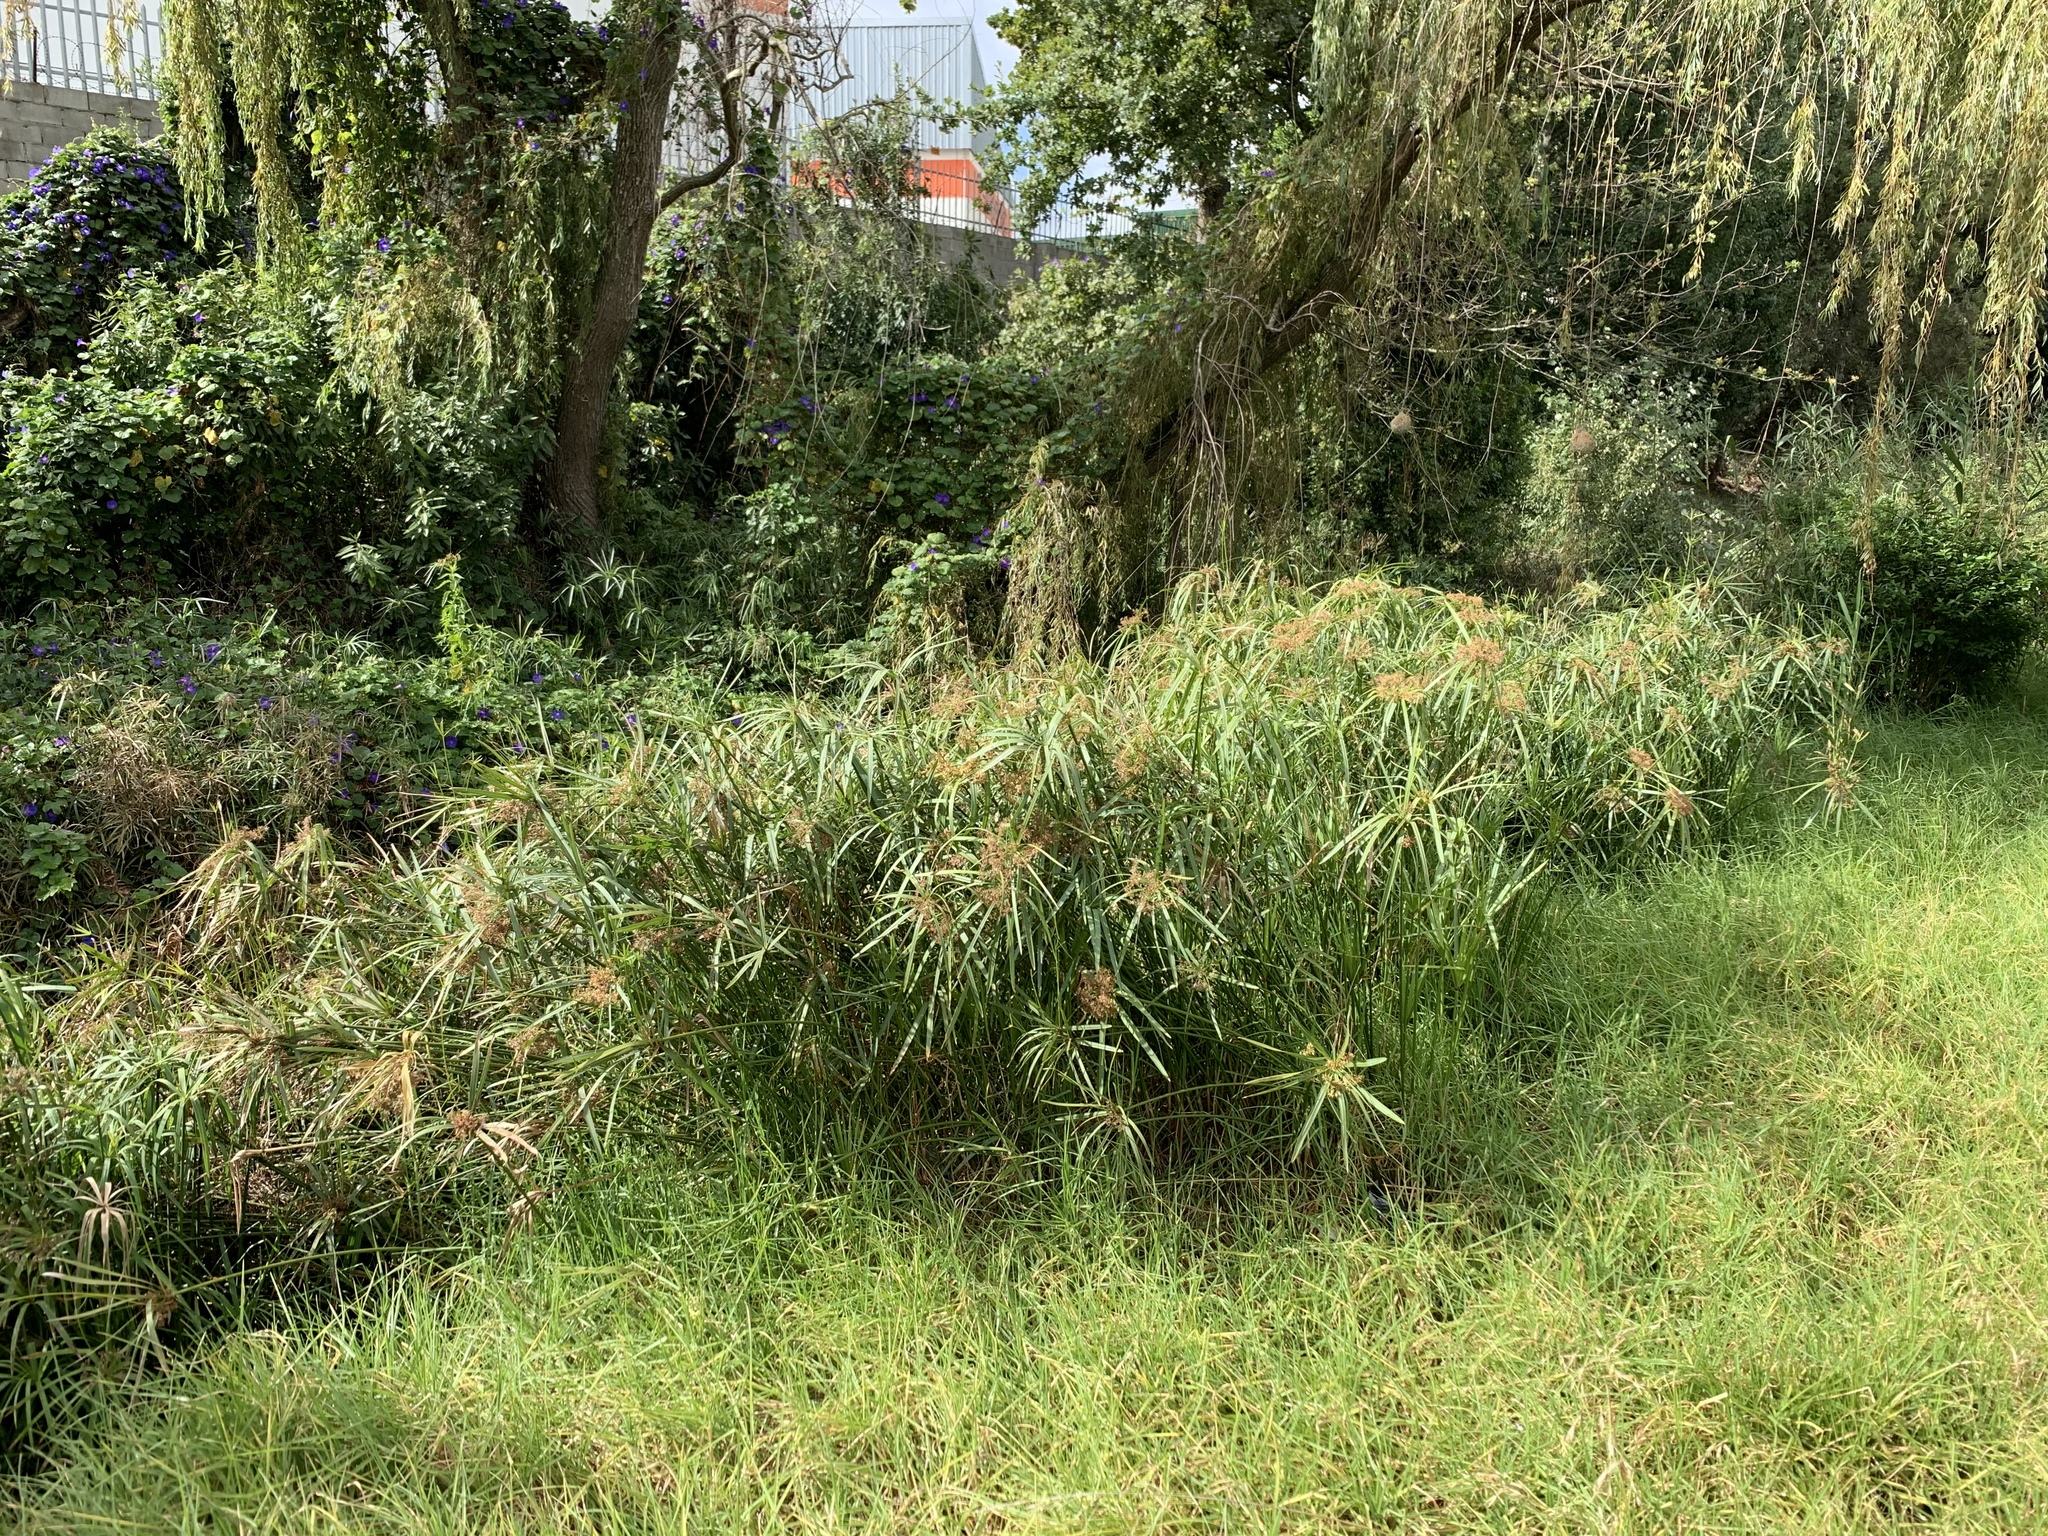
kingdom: Plantae
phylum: Tracheophyta
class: Liliopsida
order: Poales
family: Cyperaceae
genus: Cyperus
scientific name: Cyperus textilis
